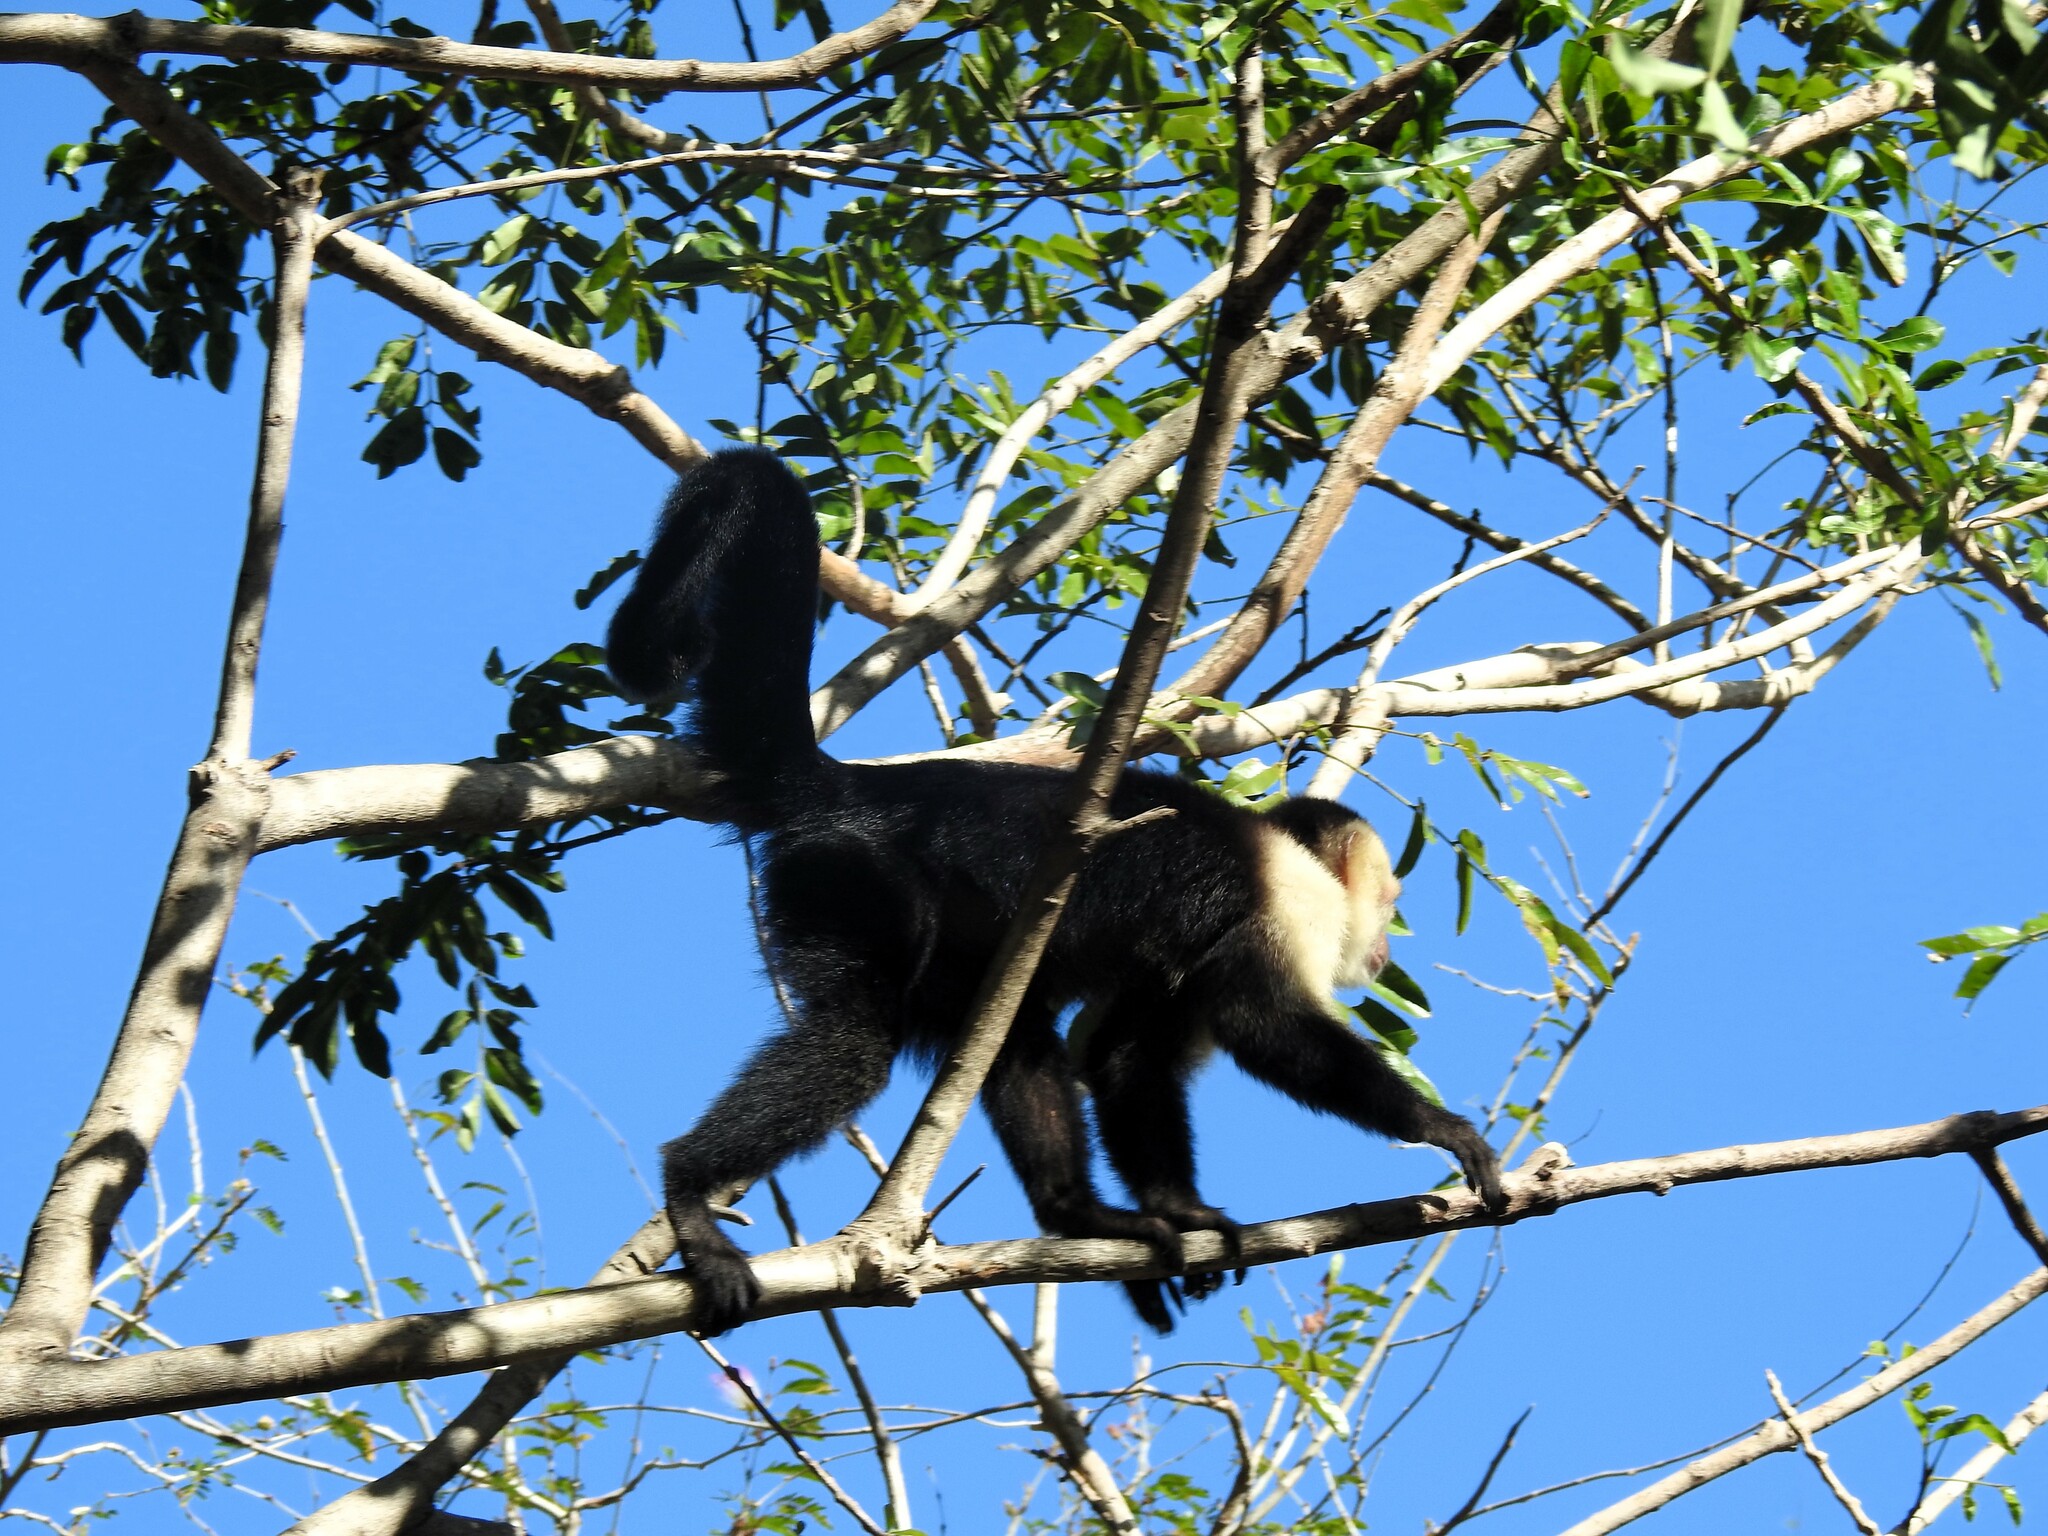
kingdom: Animalia
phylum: Chordata
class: Mammalia
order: Primates
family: Cebidae
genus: Cebus
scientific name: Cebus imitator
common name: Panamanian white-faced capuchin
